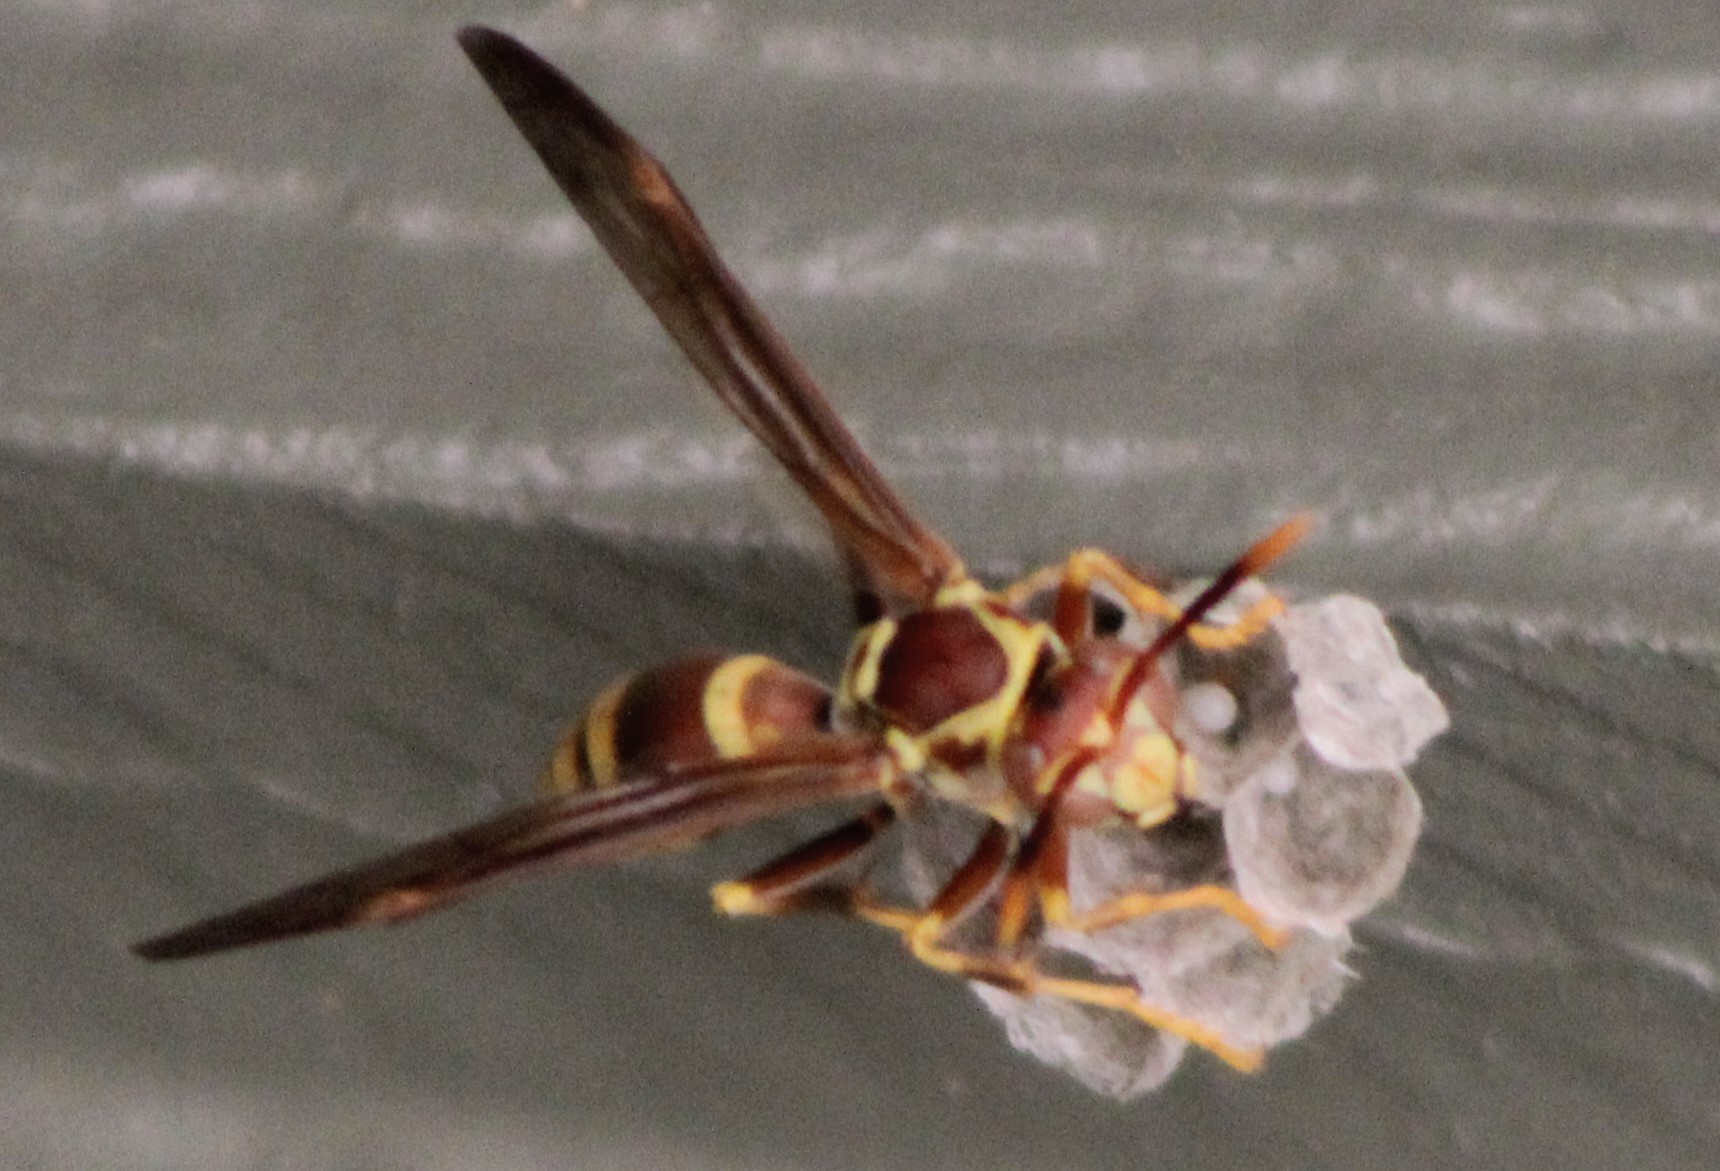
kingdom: Animalia
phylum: Arthropoda
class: Insecta
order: Hymenoptera
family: Eumenidae
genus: Polistes
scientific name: Polistes exclamans
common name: Paper wasp
